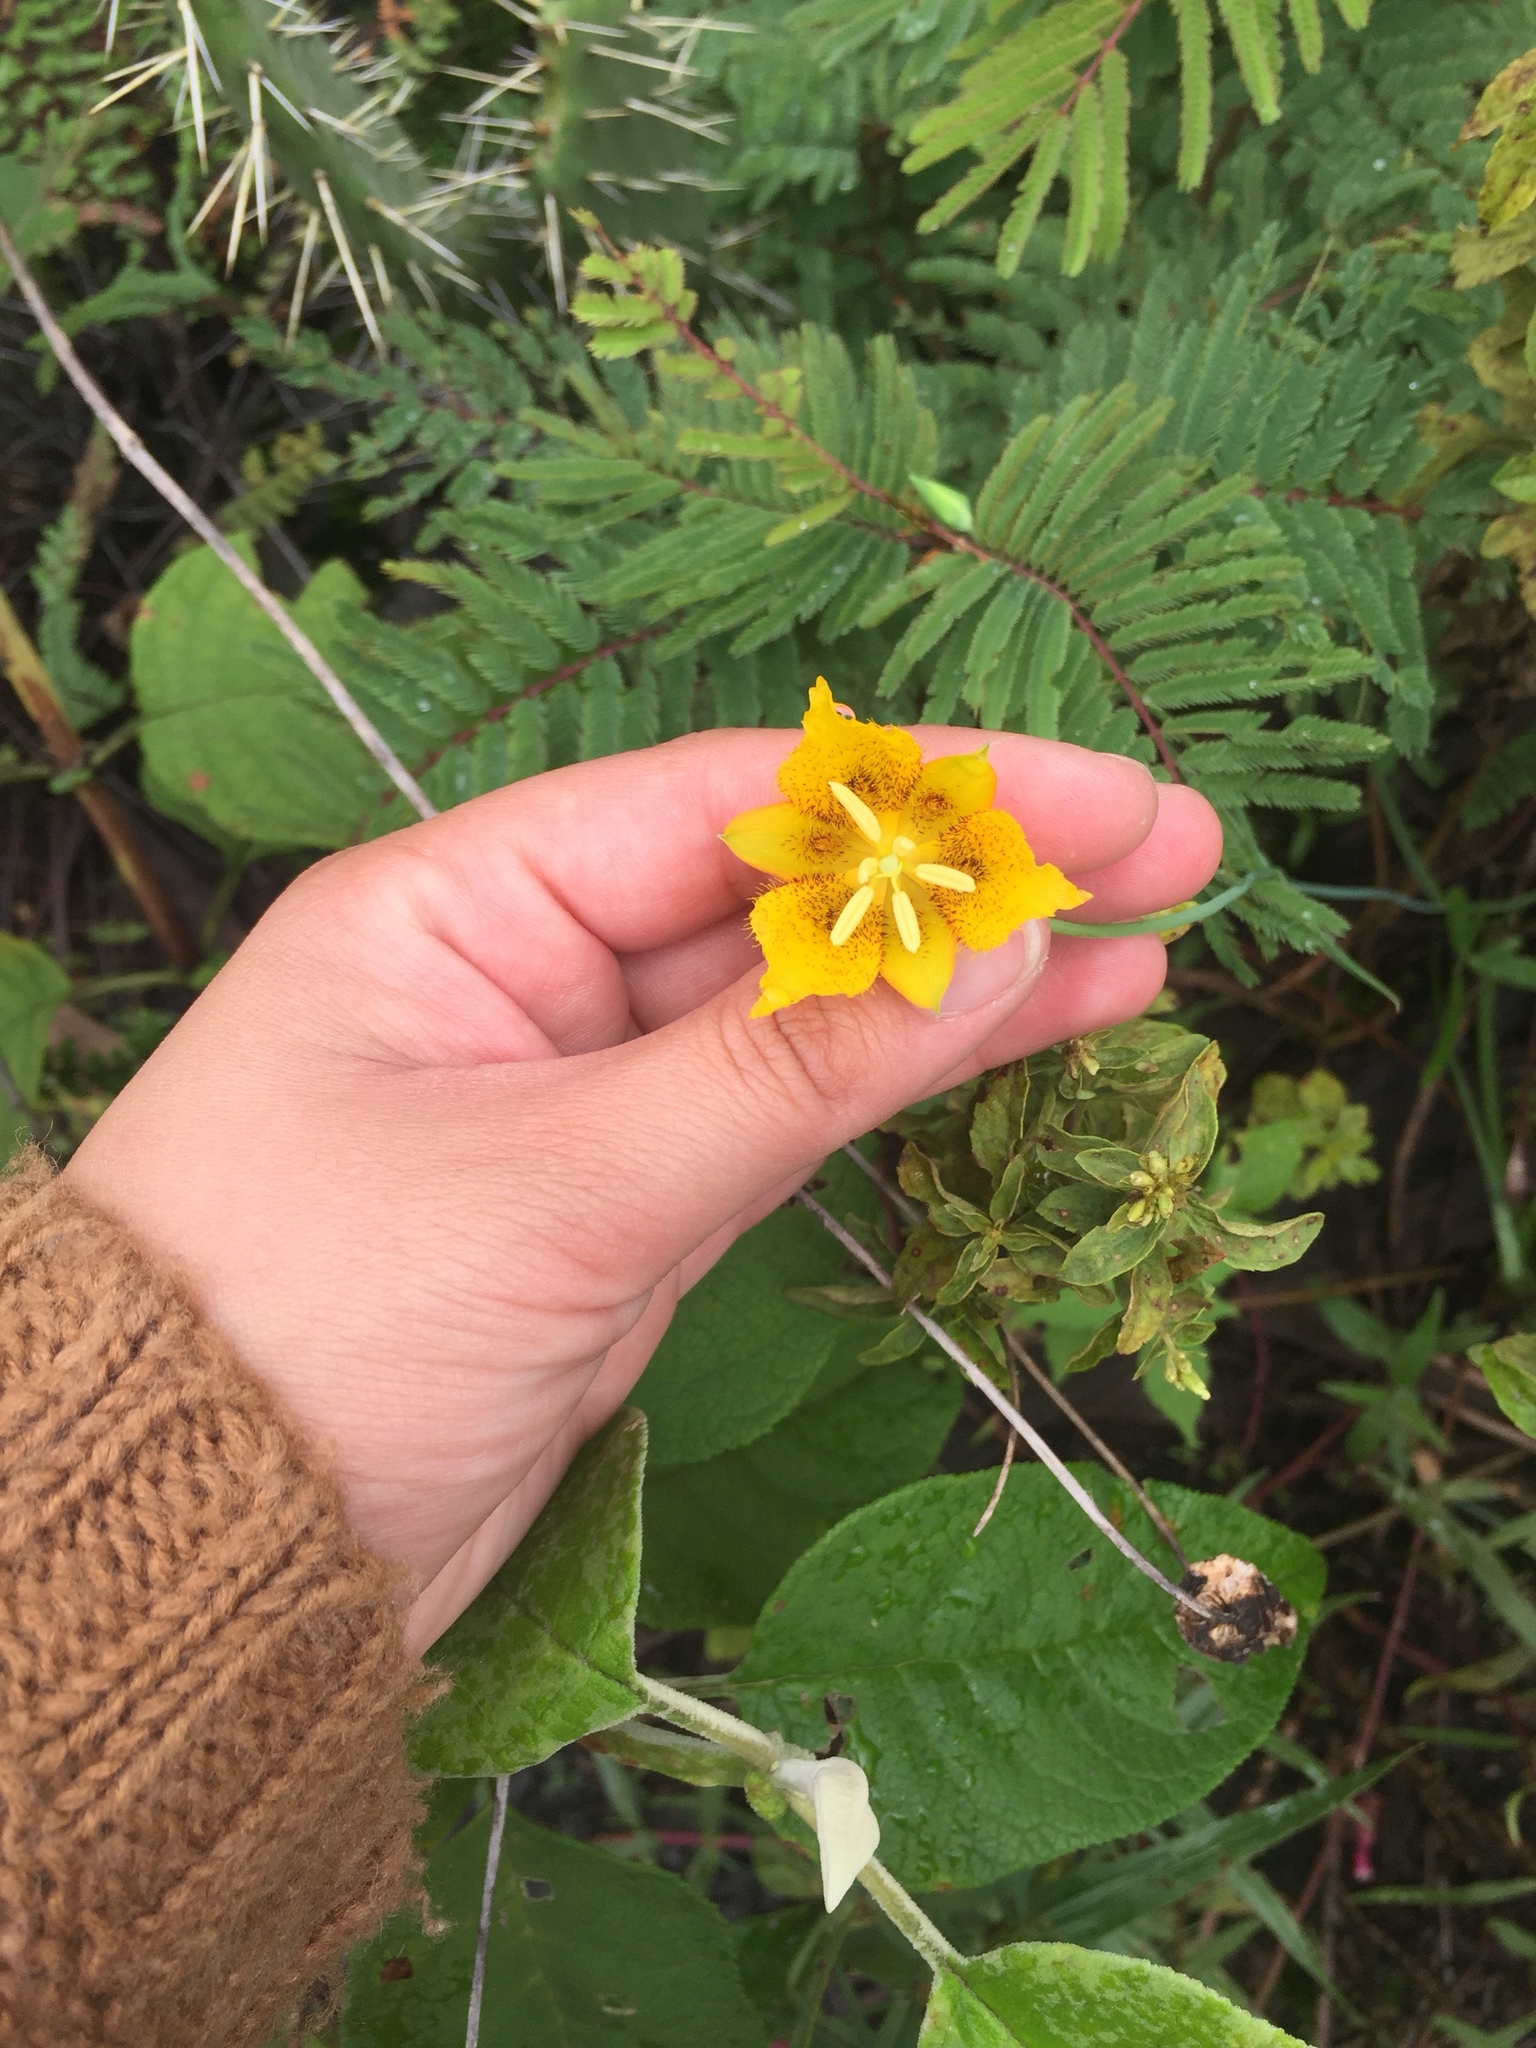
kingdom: Plantae
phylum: Tracheophyta
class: Liliopsida
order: Liliales
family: Liliaceae
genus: Calochortus
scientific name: Calochortus barbatus
